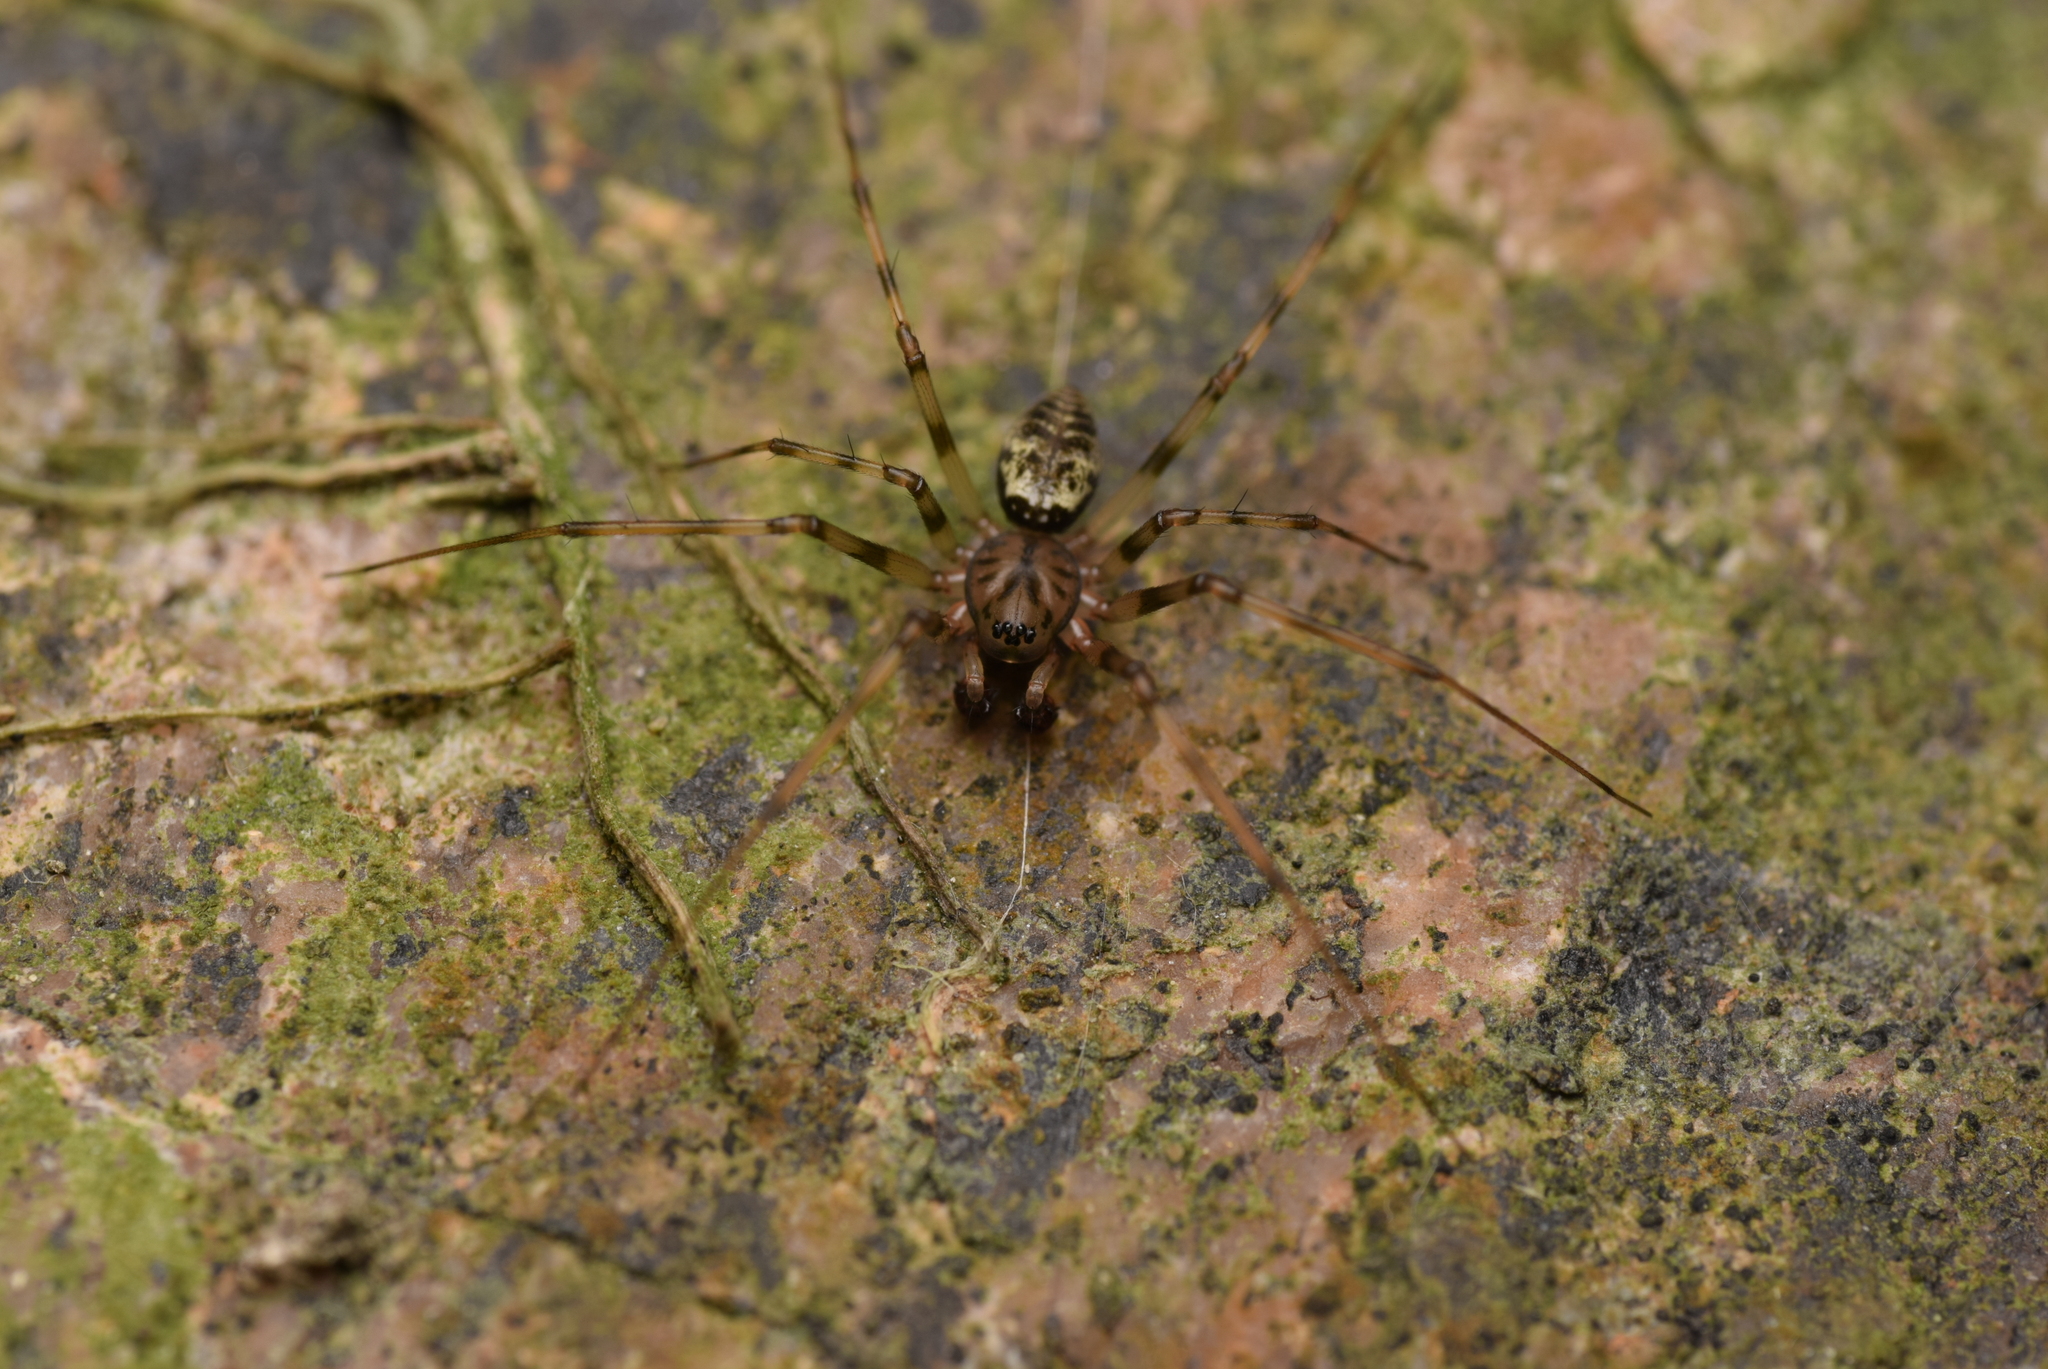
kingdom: Animalia
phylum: Arthropoda
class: Arachnida
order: Araneae
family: Linyphiidae
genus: Drapetisca
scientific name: Drapetisca socialis
